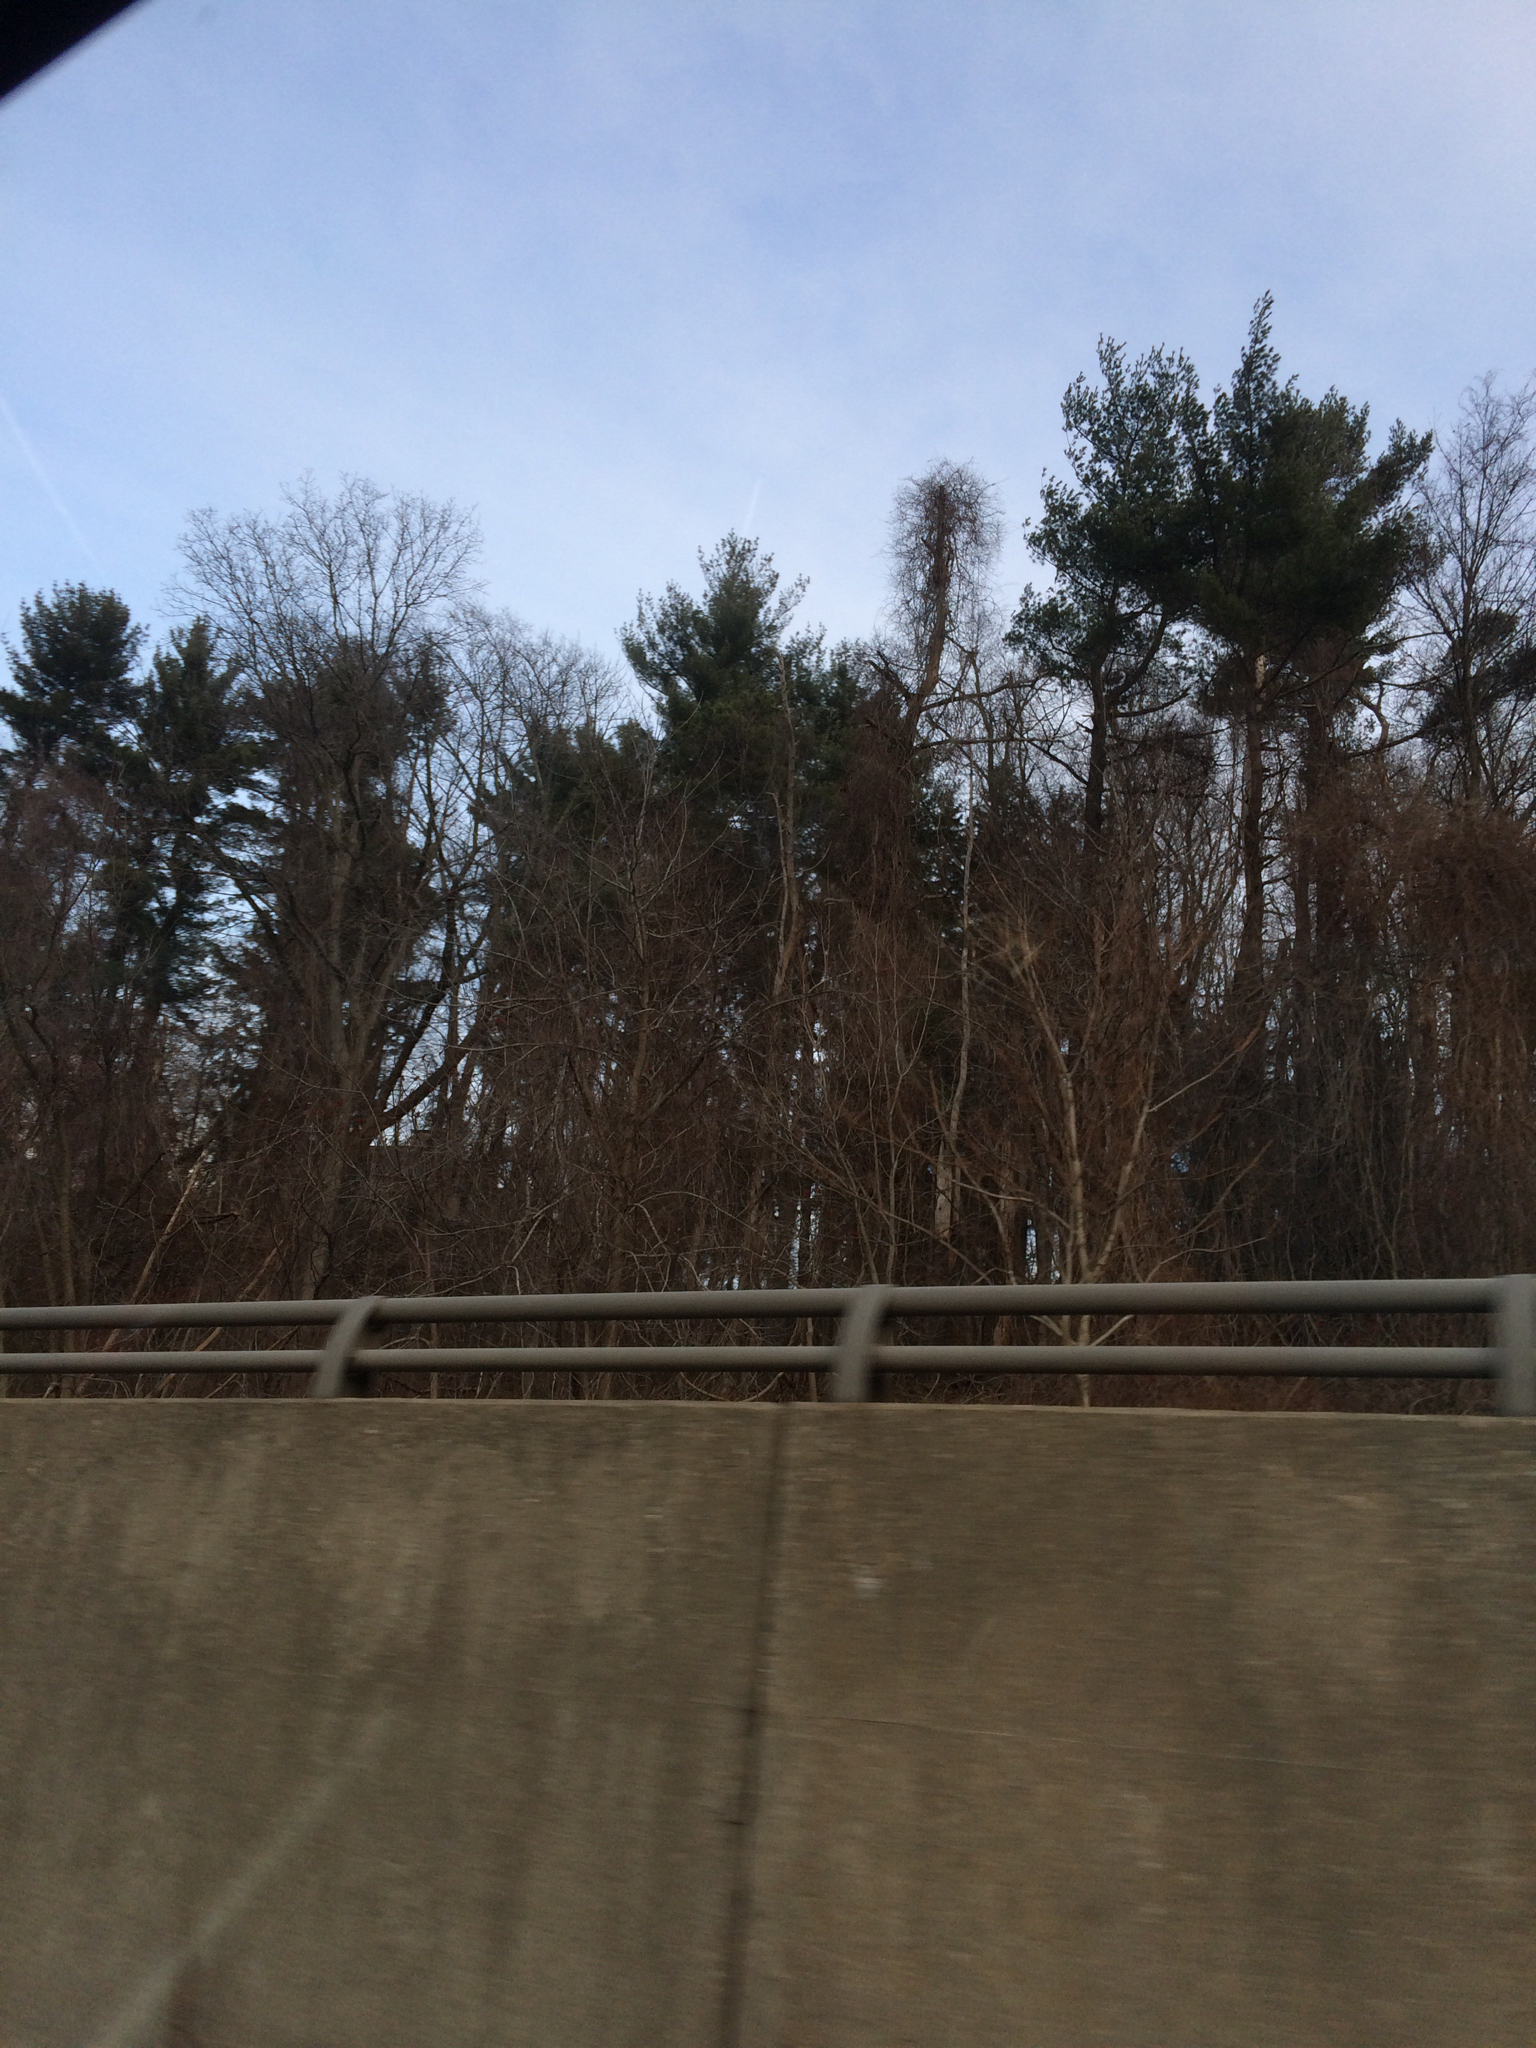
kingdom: Plantae
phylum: Tracheophyta
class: Pinopsida
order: Pinales
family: Pinaceae
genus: Pinus
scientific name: Pinus strobus
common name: Weymouth pine
